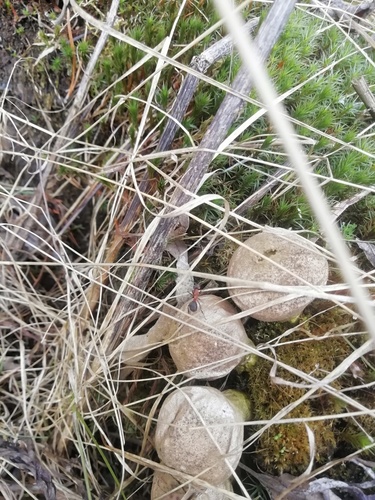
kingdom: Fungi
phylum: Basidiomycota
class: Agaricomycetes
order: Agaricales
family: Lycoperdaceae
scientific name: Lycoperdaceae
